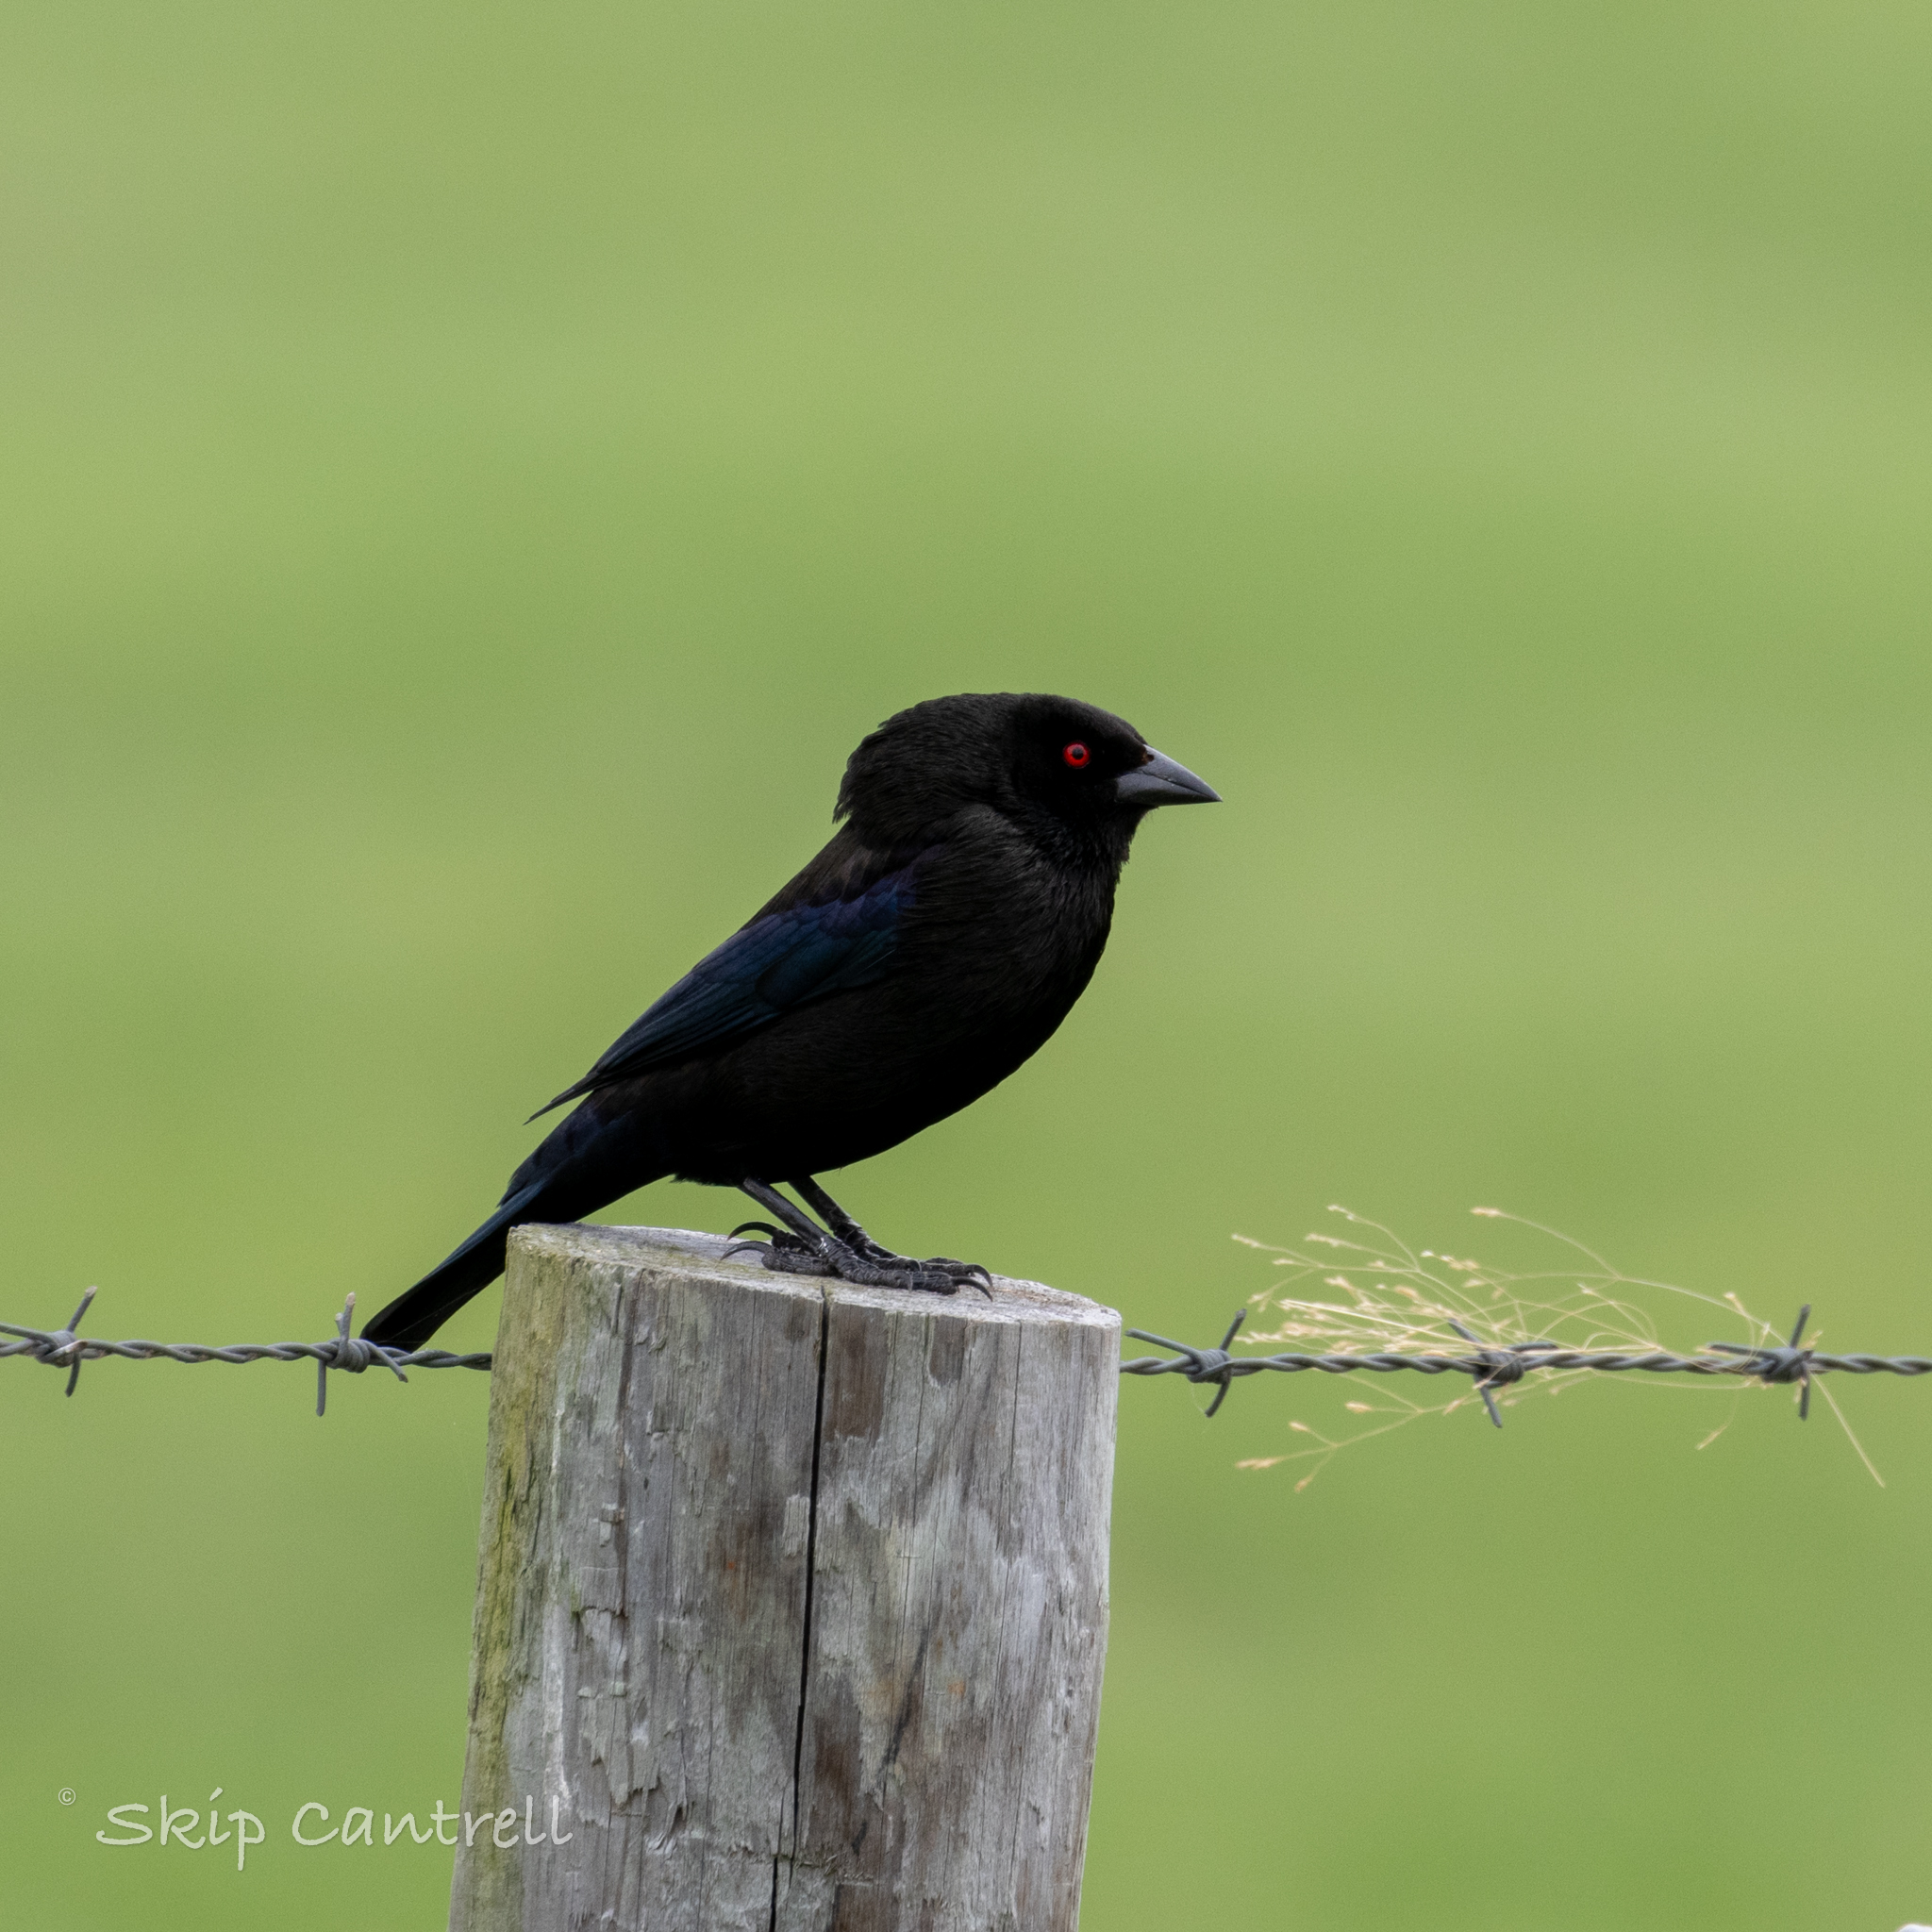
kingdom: Animalia
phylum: Chordata
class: Aves
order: Passeriformes
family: Icteridae
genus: Molothrus
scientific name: Molothrus aeneus
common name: Bronzed cowbird
